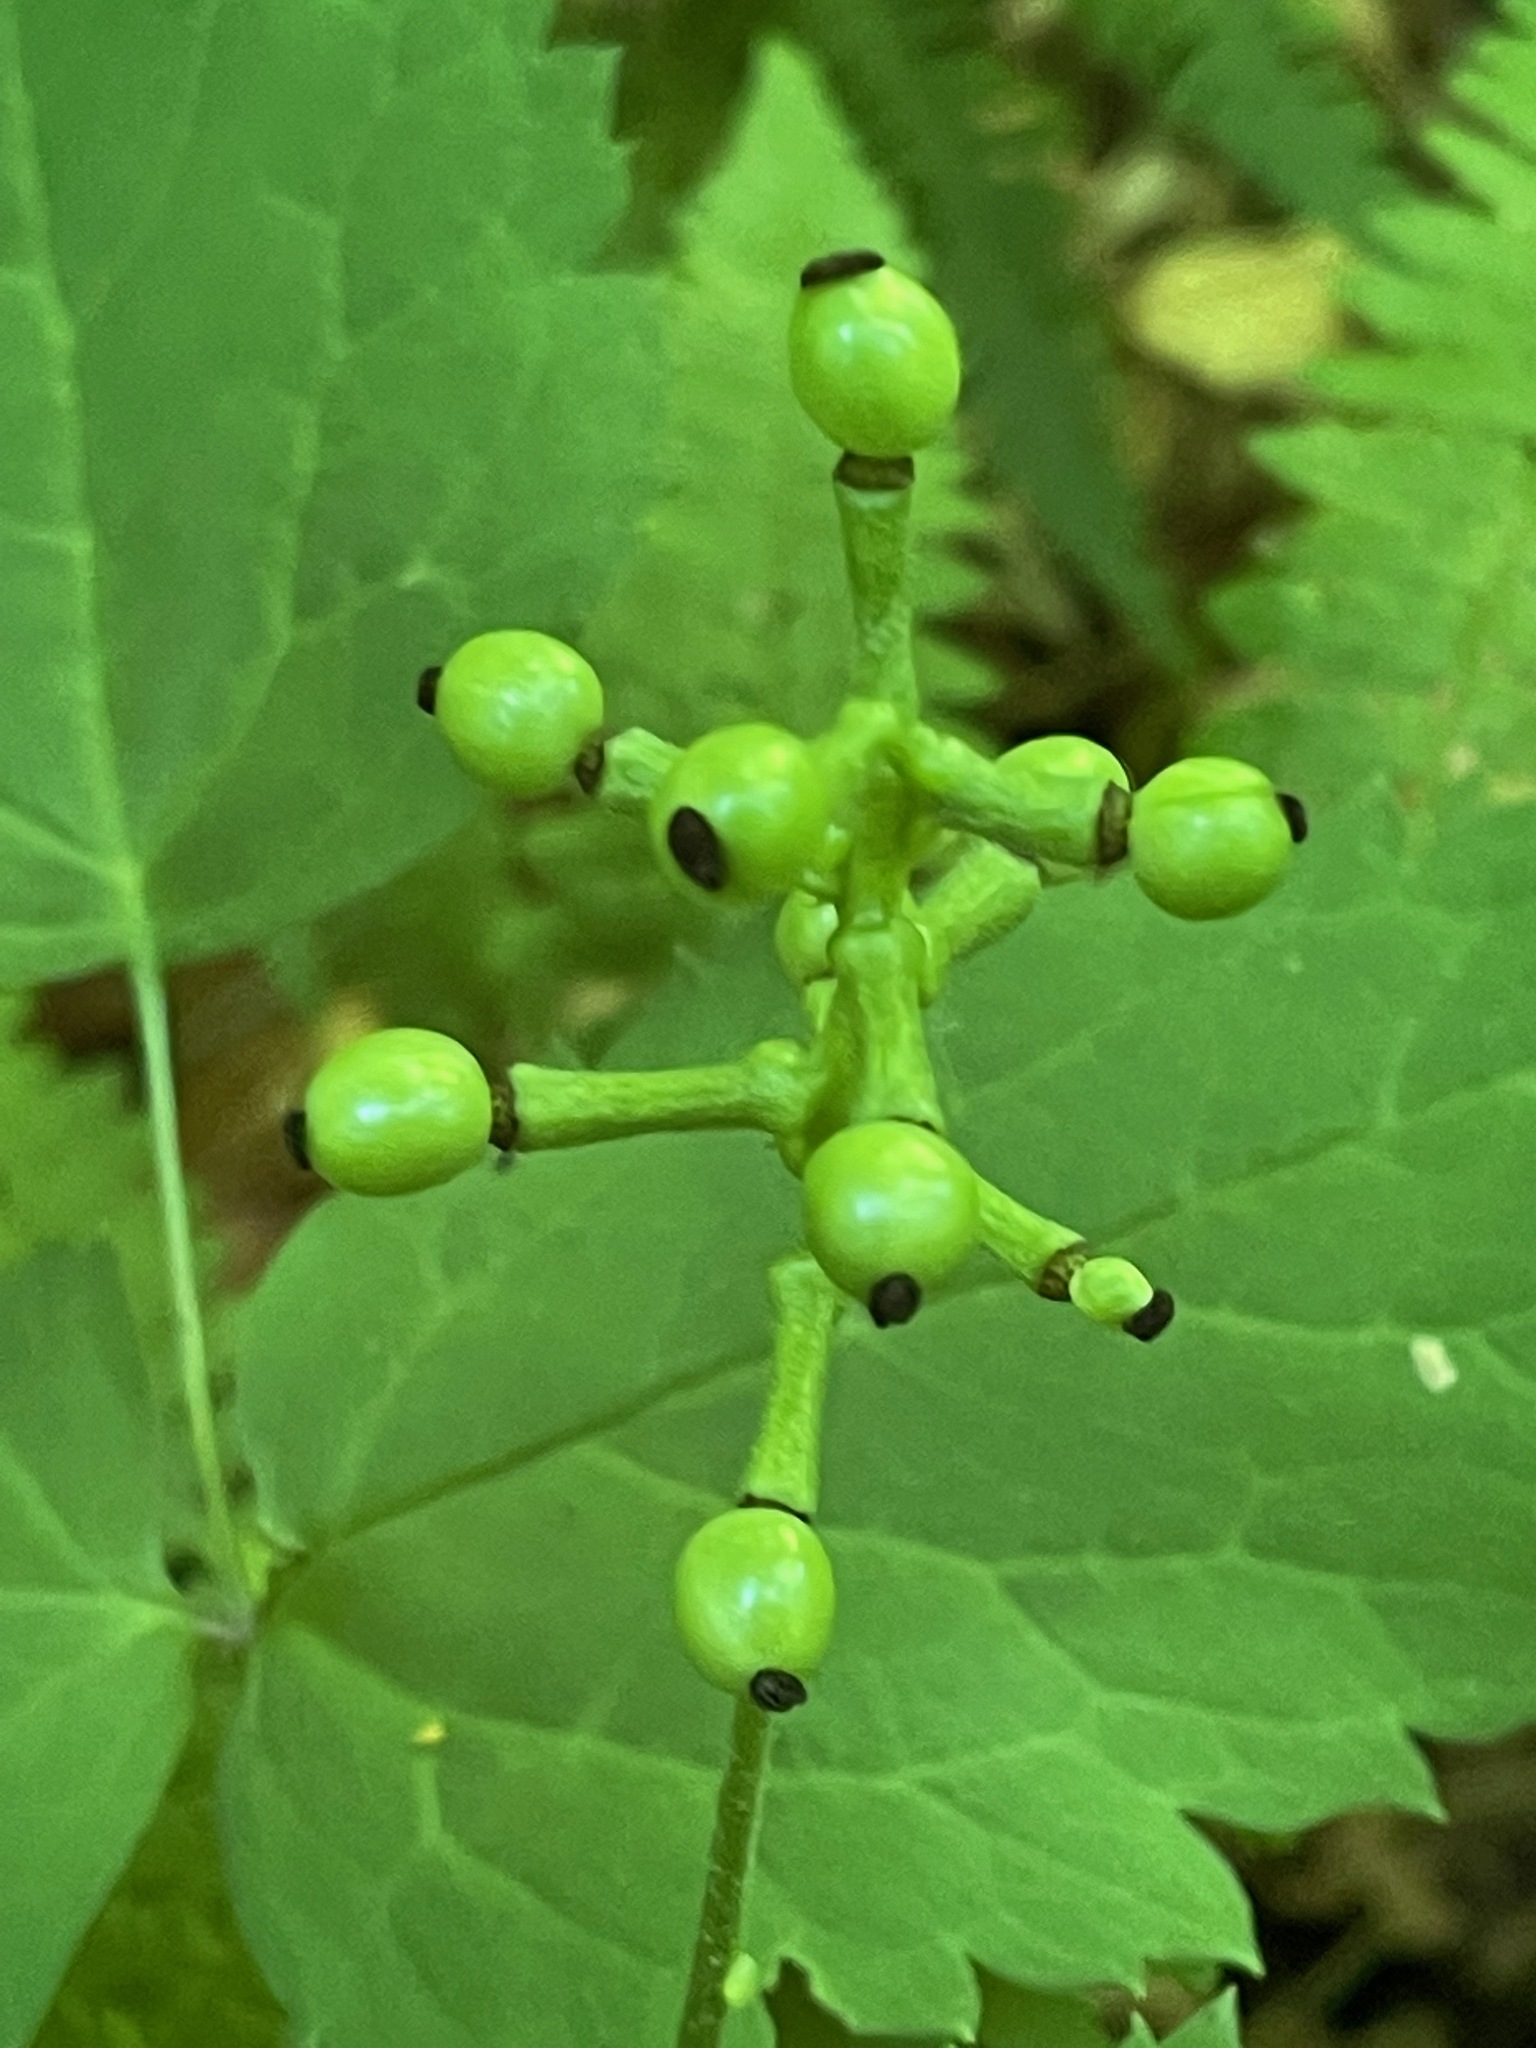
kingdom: Plantae
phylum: Tracheophyta
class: Magnoliopsida
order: Ranunculales
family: Ranunculaceae
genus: Actaea
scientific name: Actaea pachypoda
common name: Doll's-eyes
